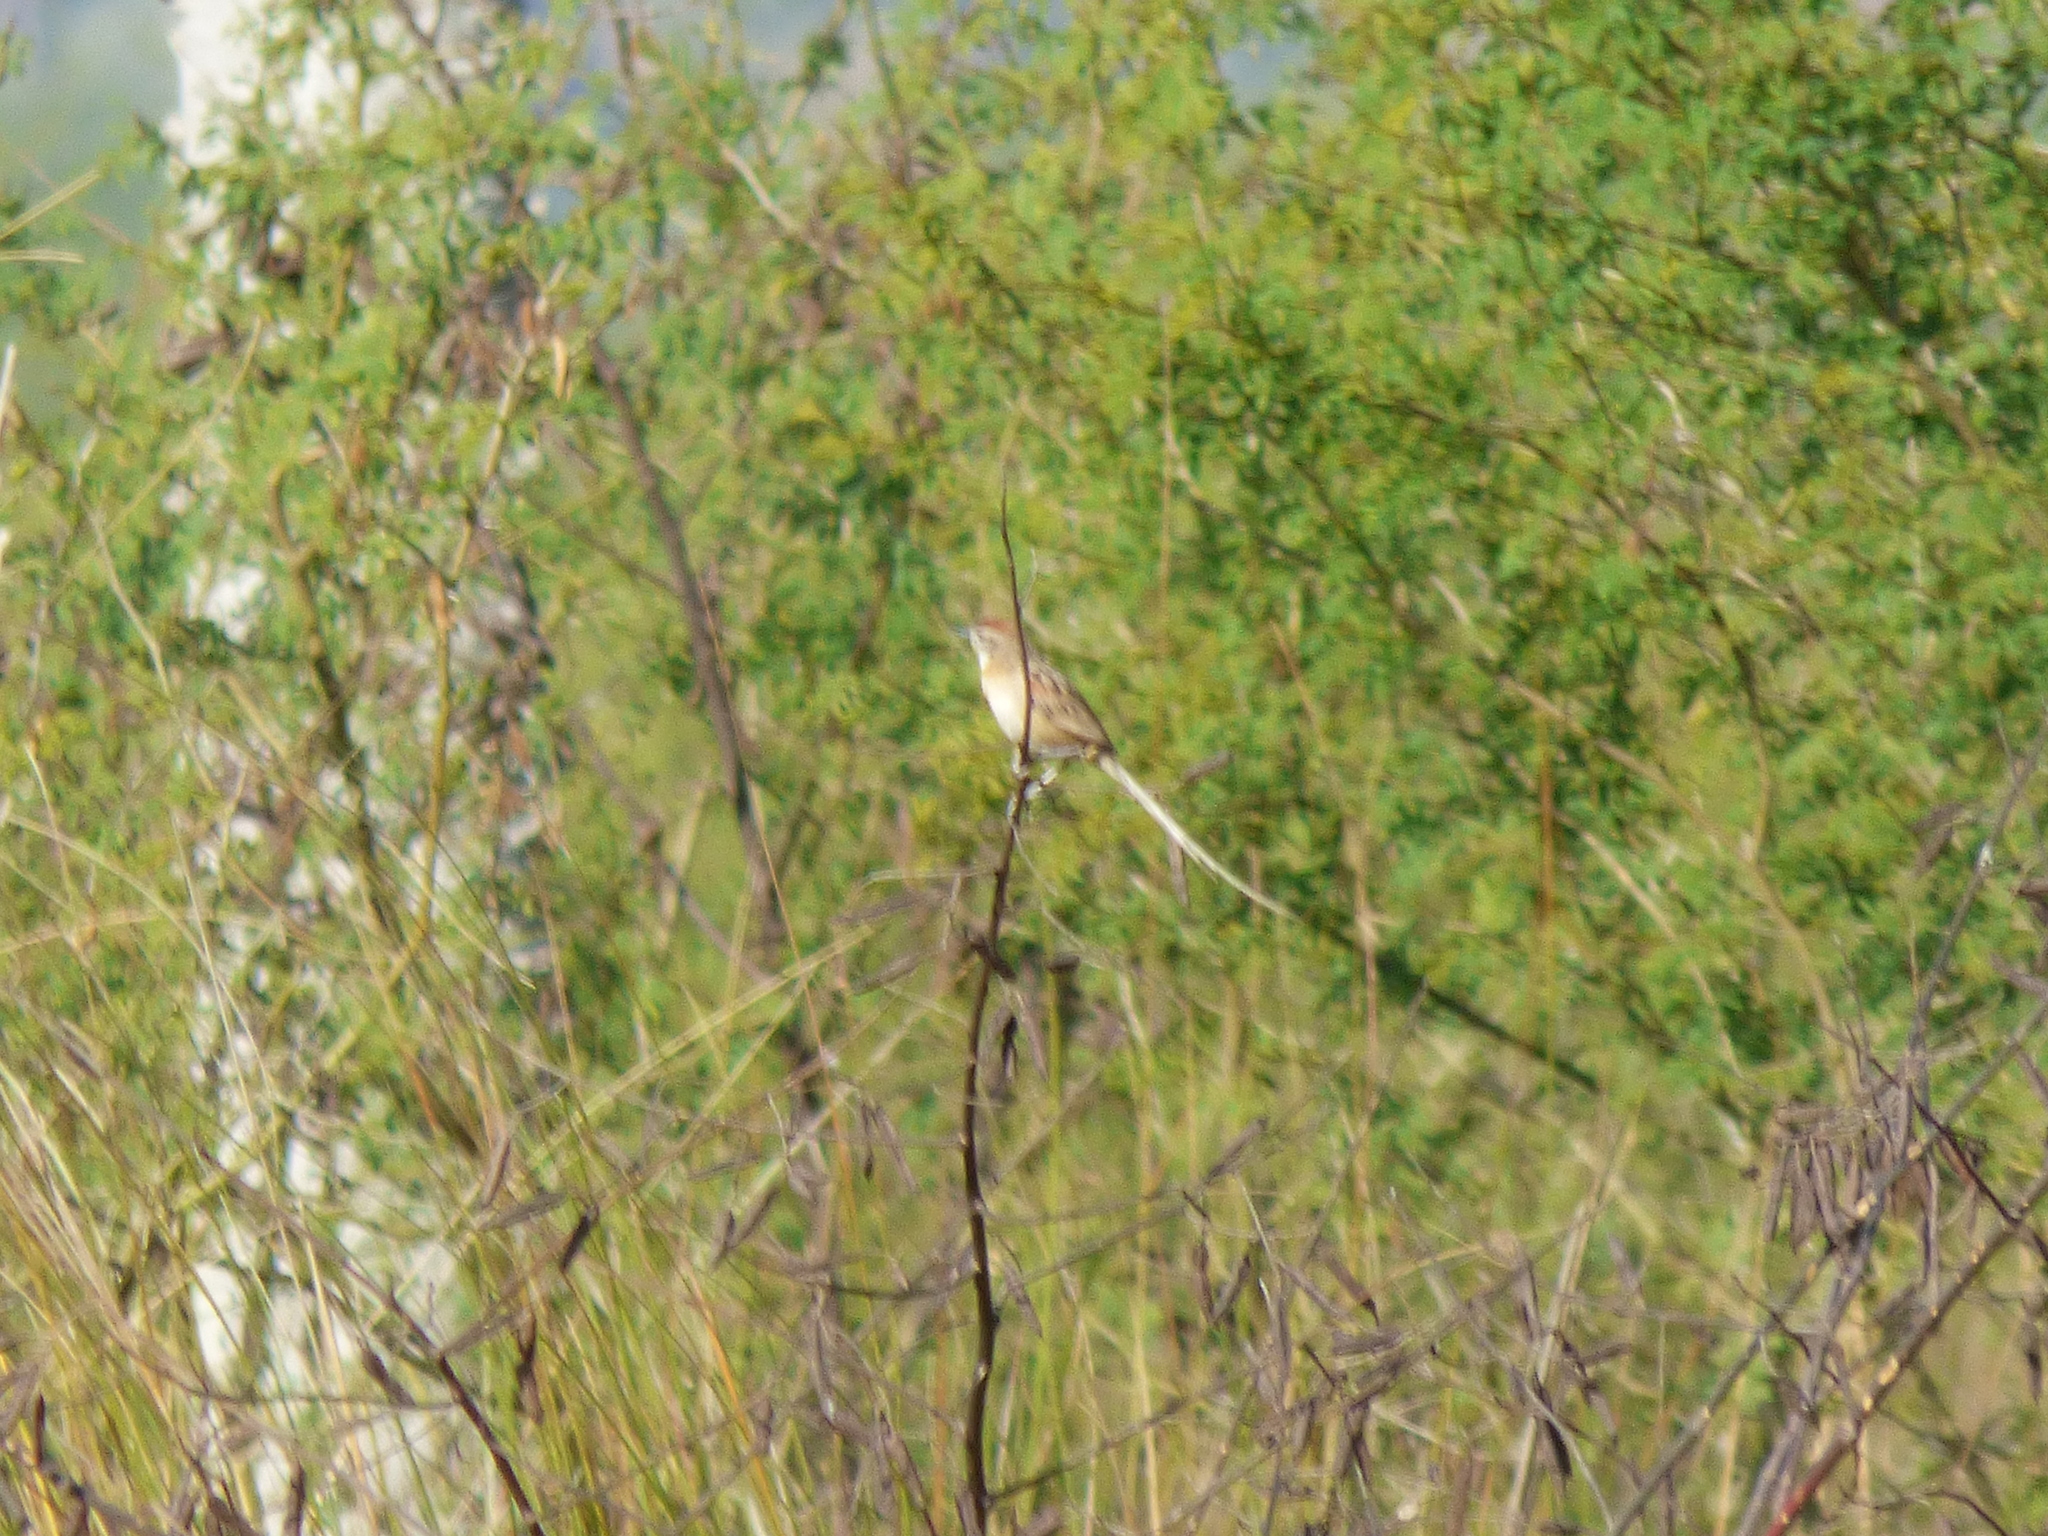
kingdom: Animalia
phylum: Chordata
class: Aves
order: Passeriformes
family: Furnariidae
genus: Schoeniophylax
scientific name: Schoeniophylax phryganophilus
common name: Chotoy spinetail
